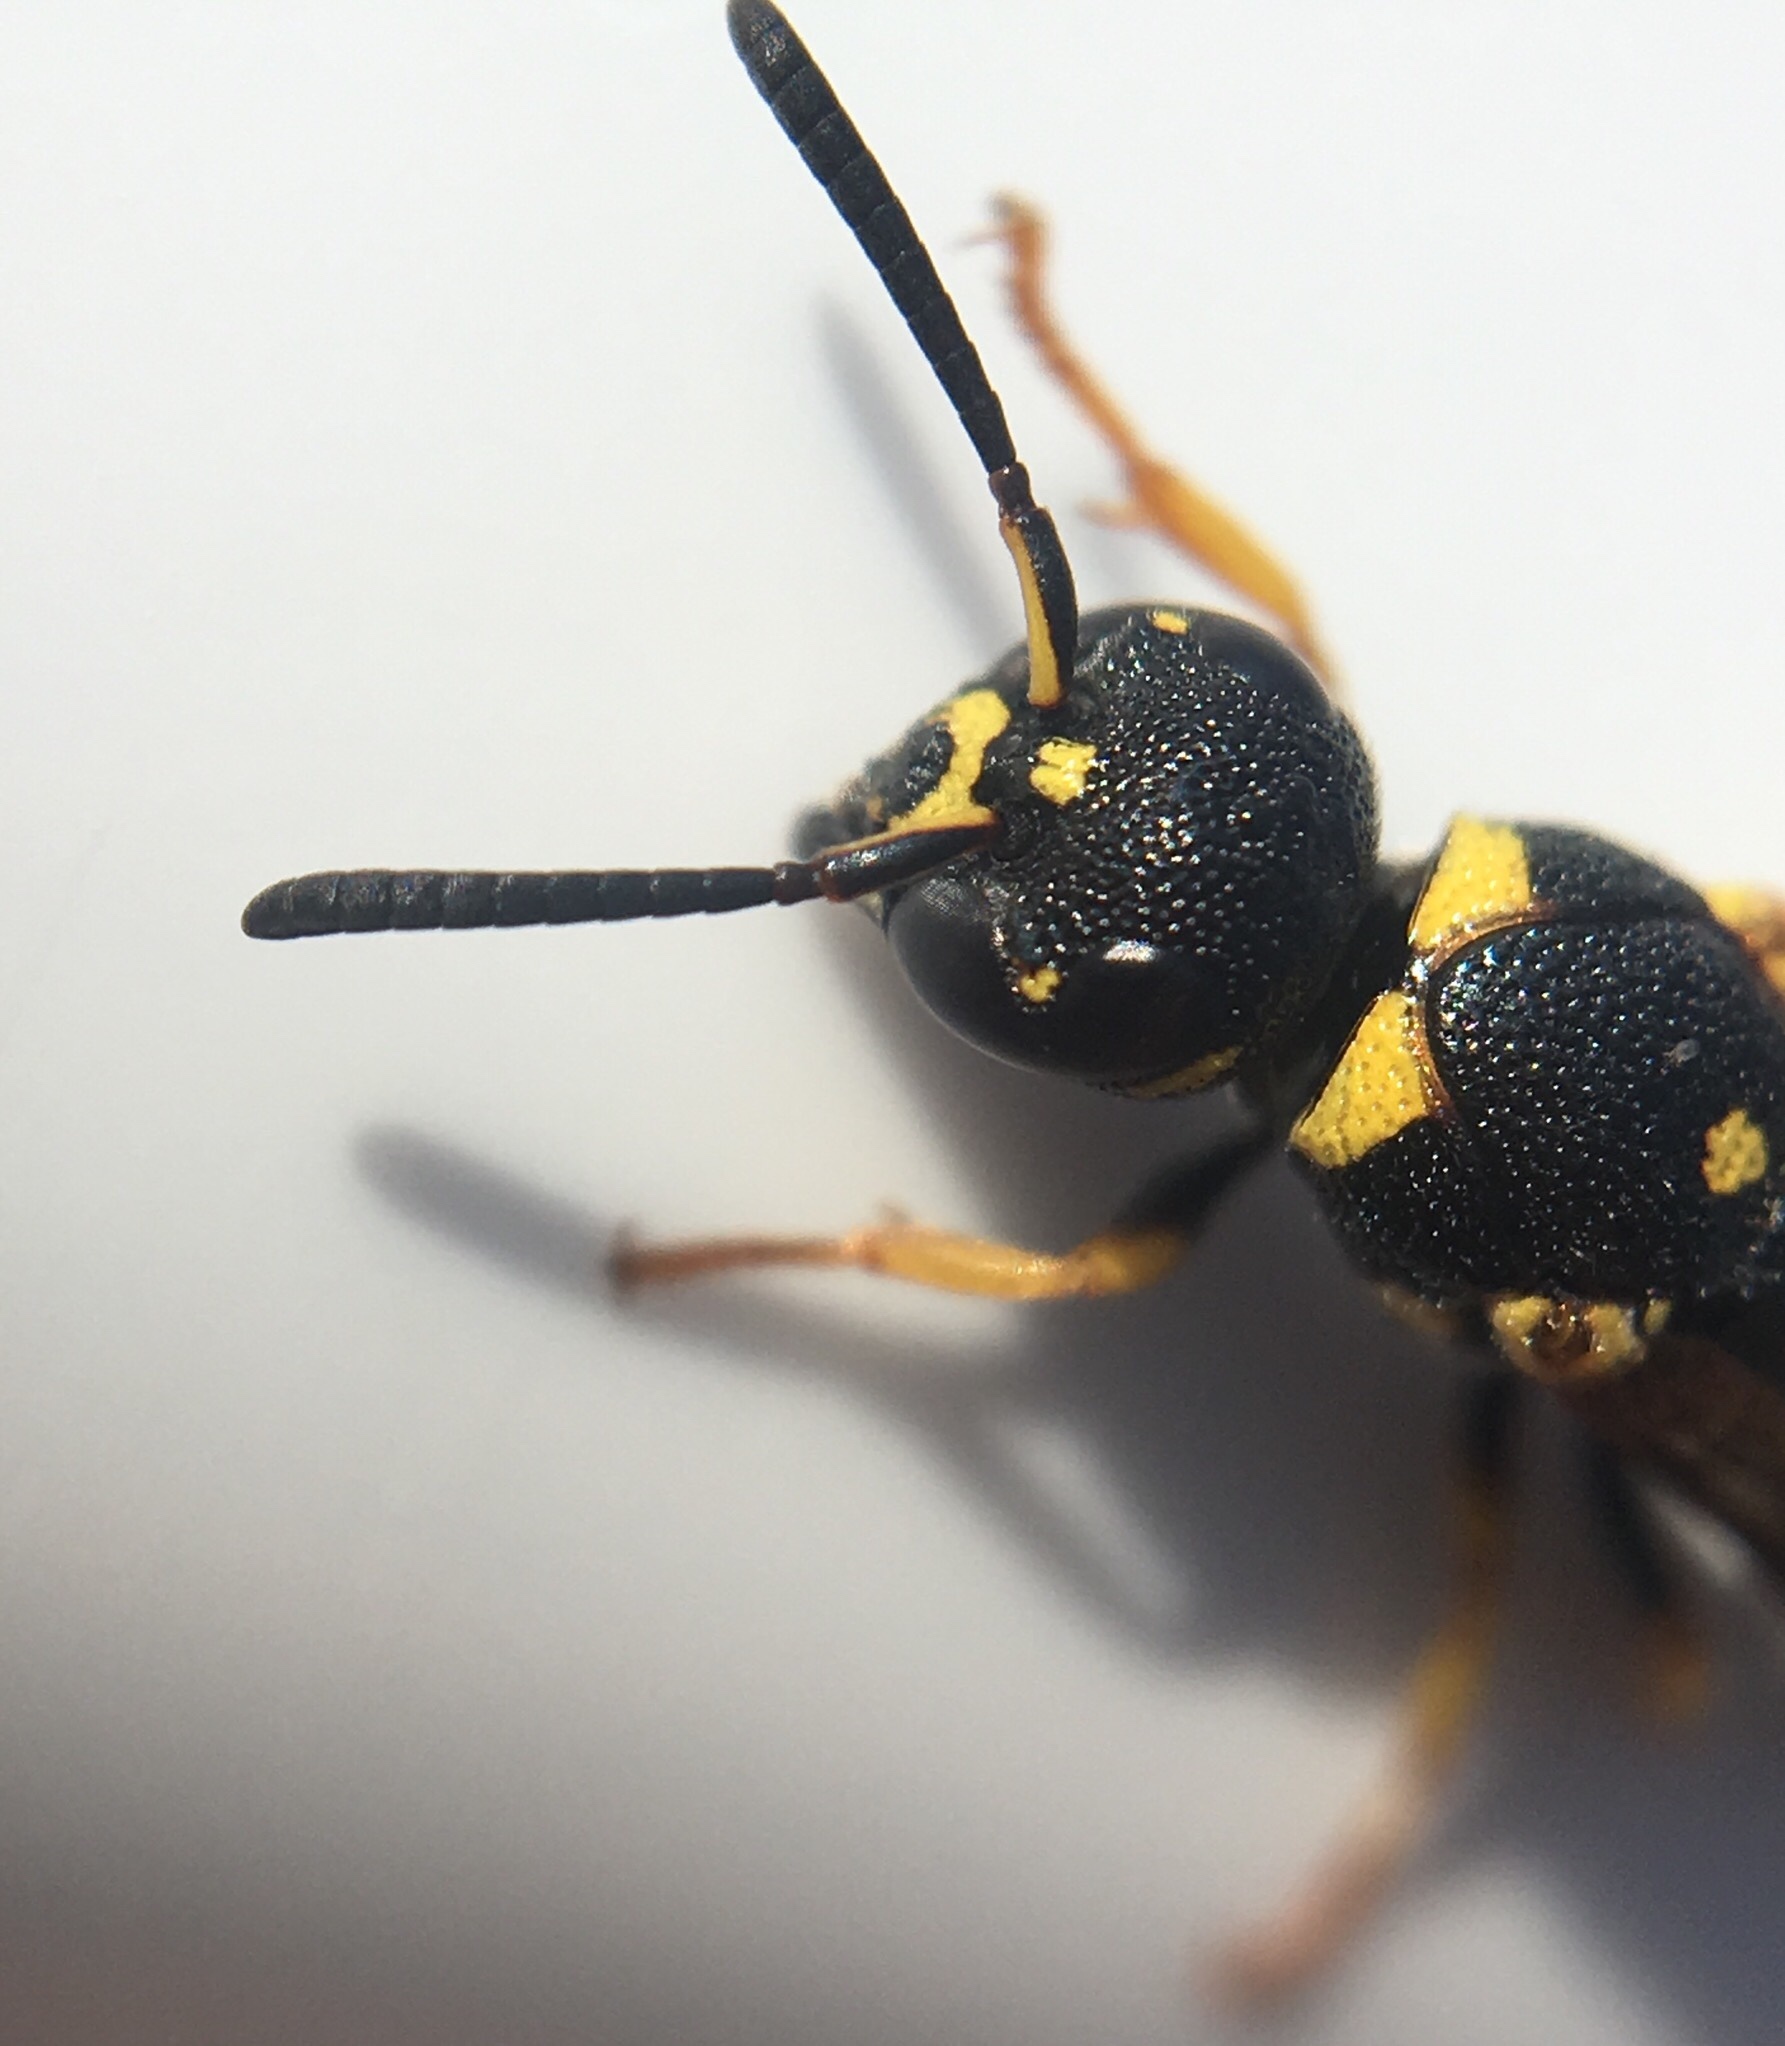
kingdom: Animalia
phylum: Arthropoda
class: Insecta
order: Hymenoptera
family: Eumenidae
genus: Parancistrocerus
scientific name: Parancistrocerus pedestris
